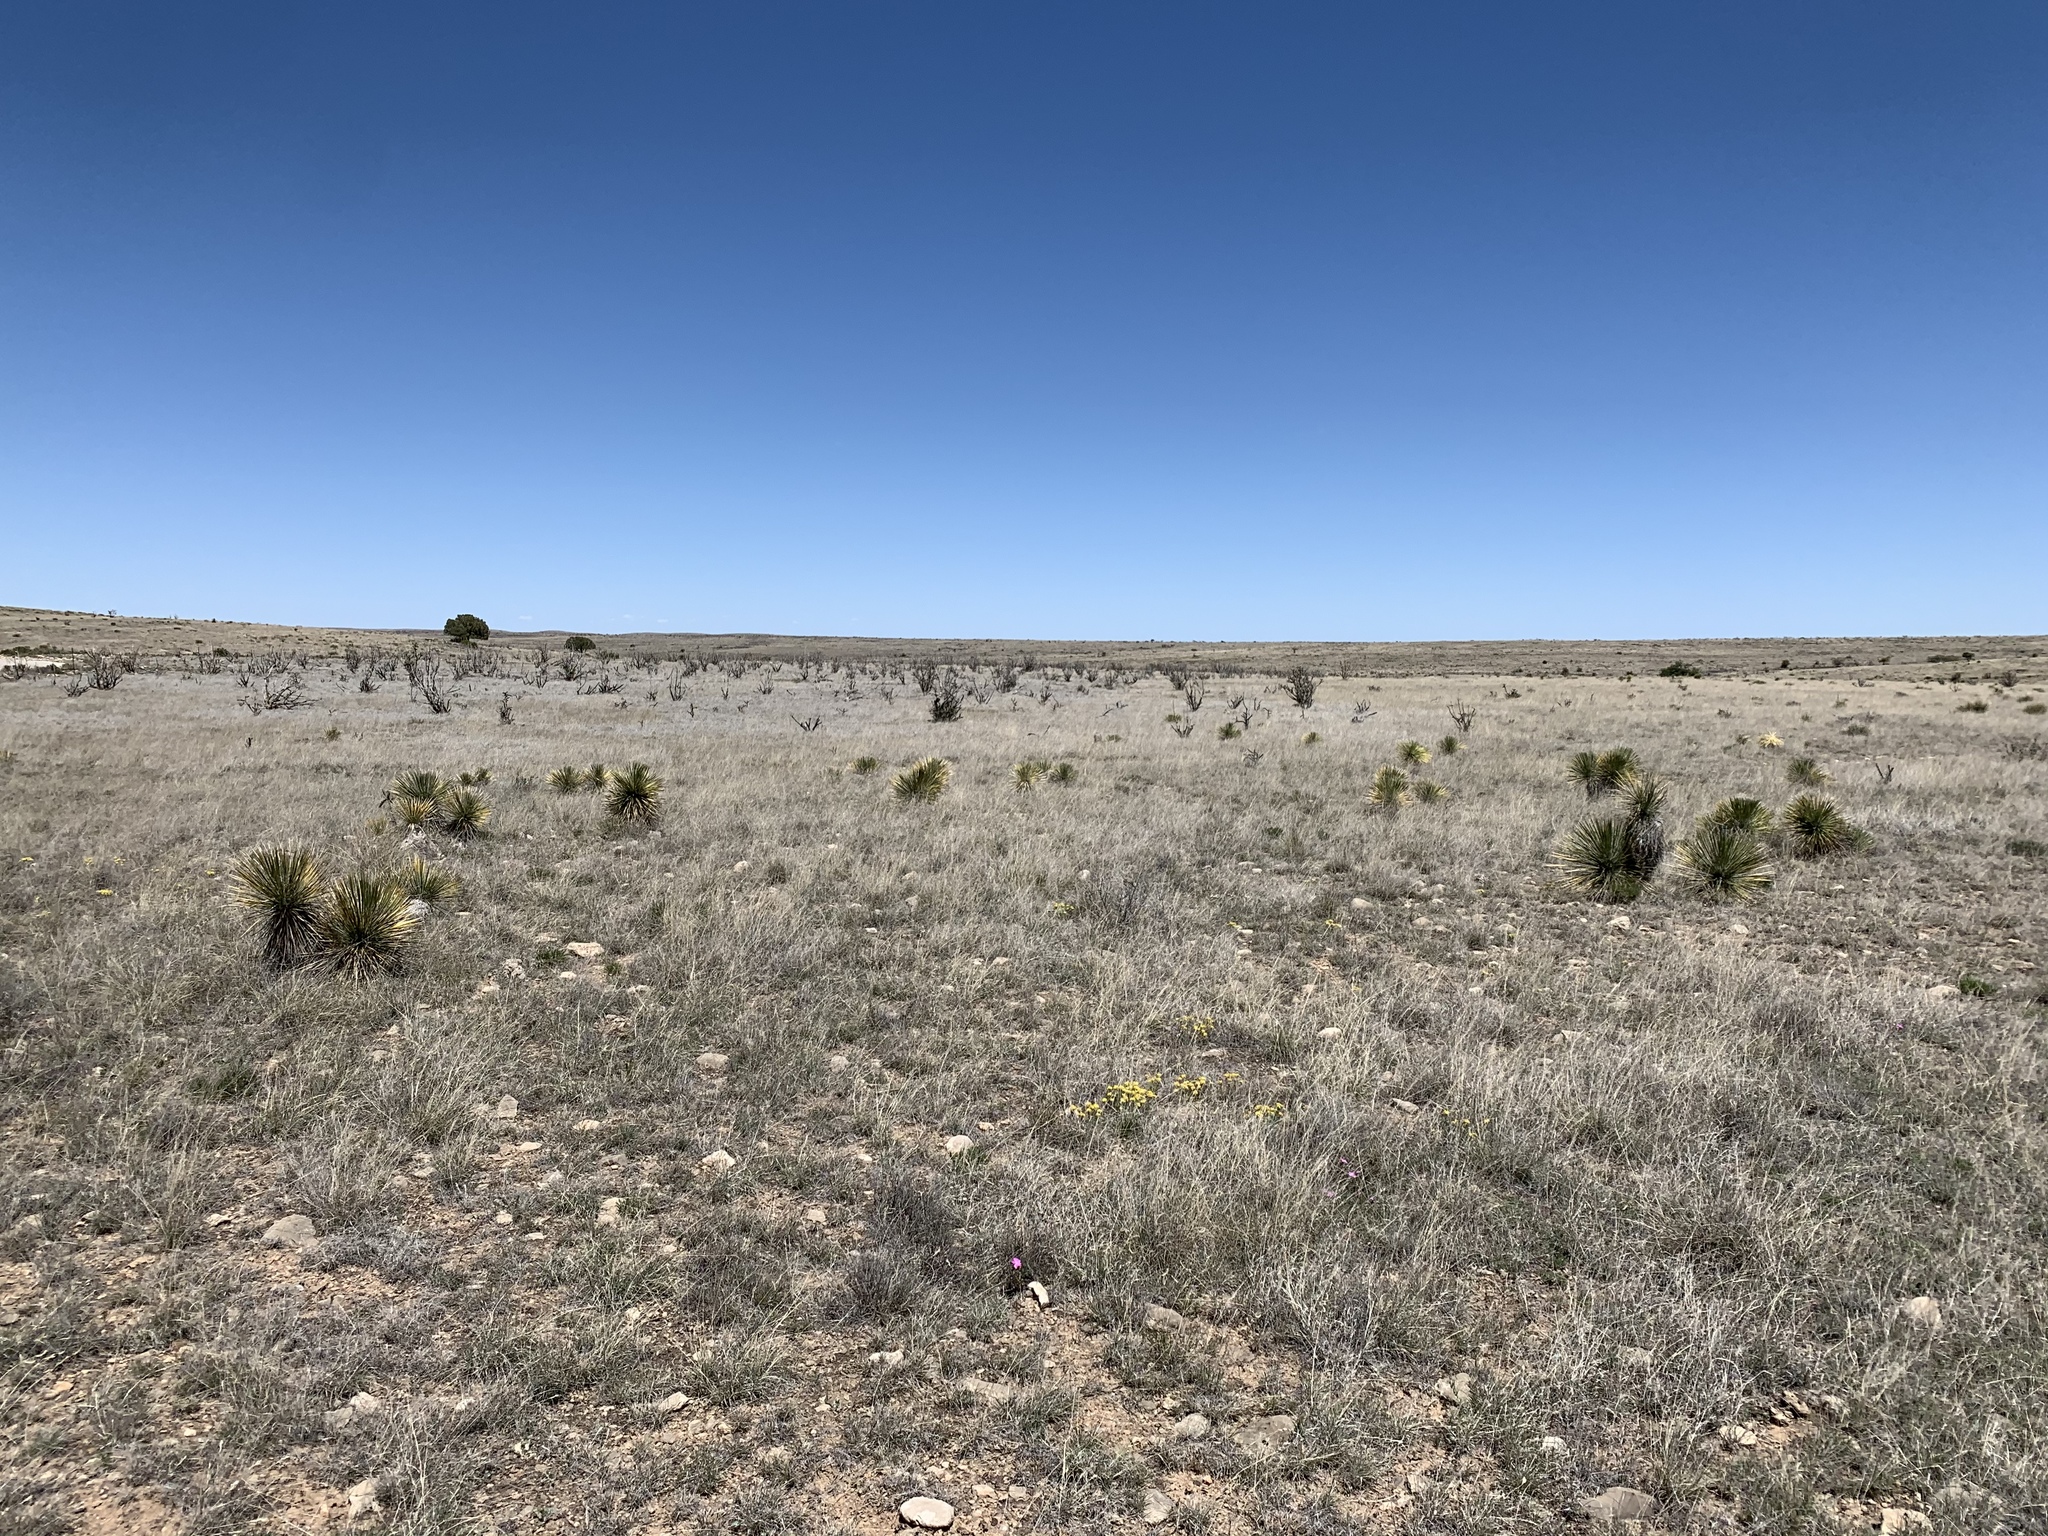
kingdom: Plantae
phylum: Tracheophyta
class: Liliopsida
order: Asparagales
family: Asparagaceae
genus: Yucca
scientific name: Yucca elata
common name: Palmella
